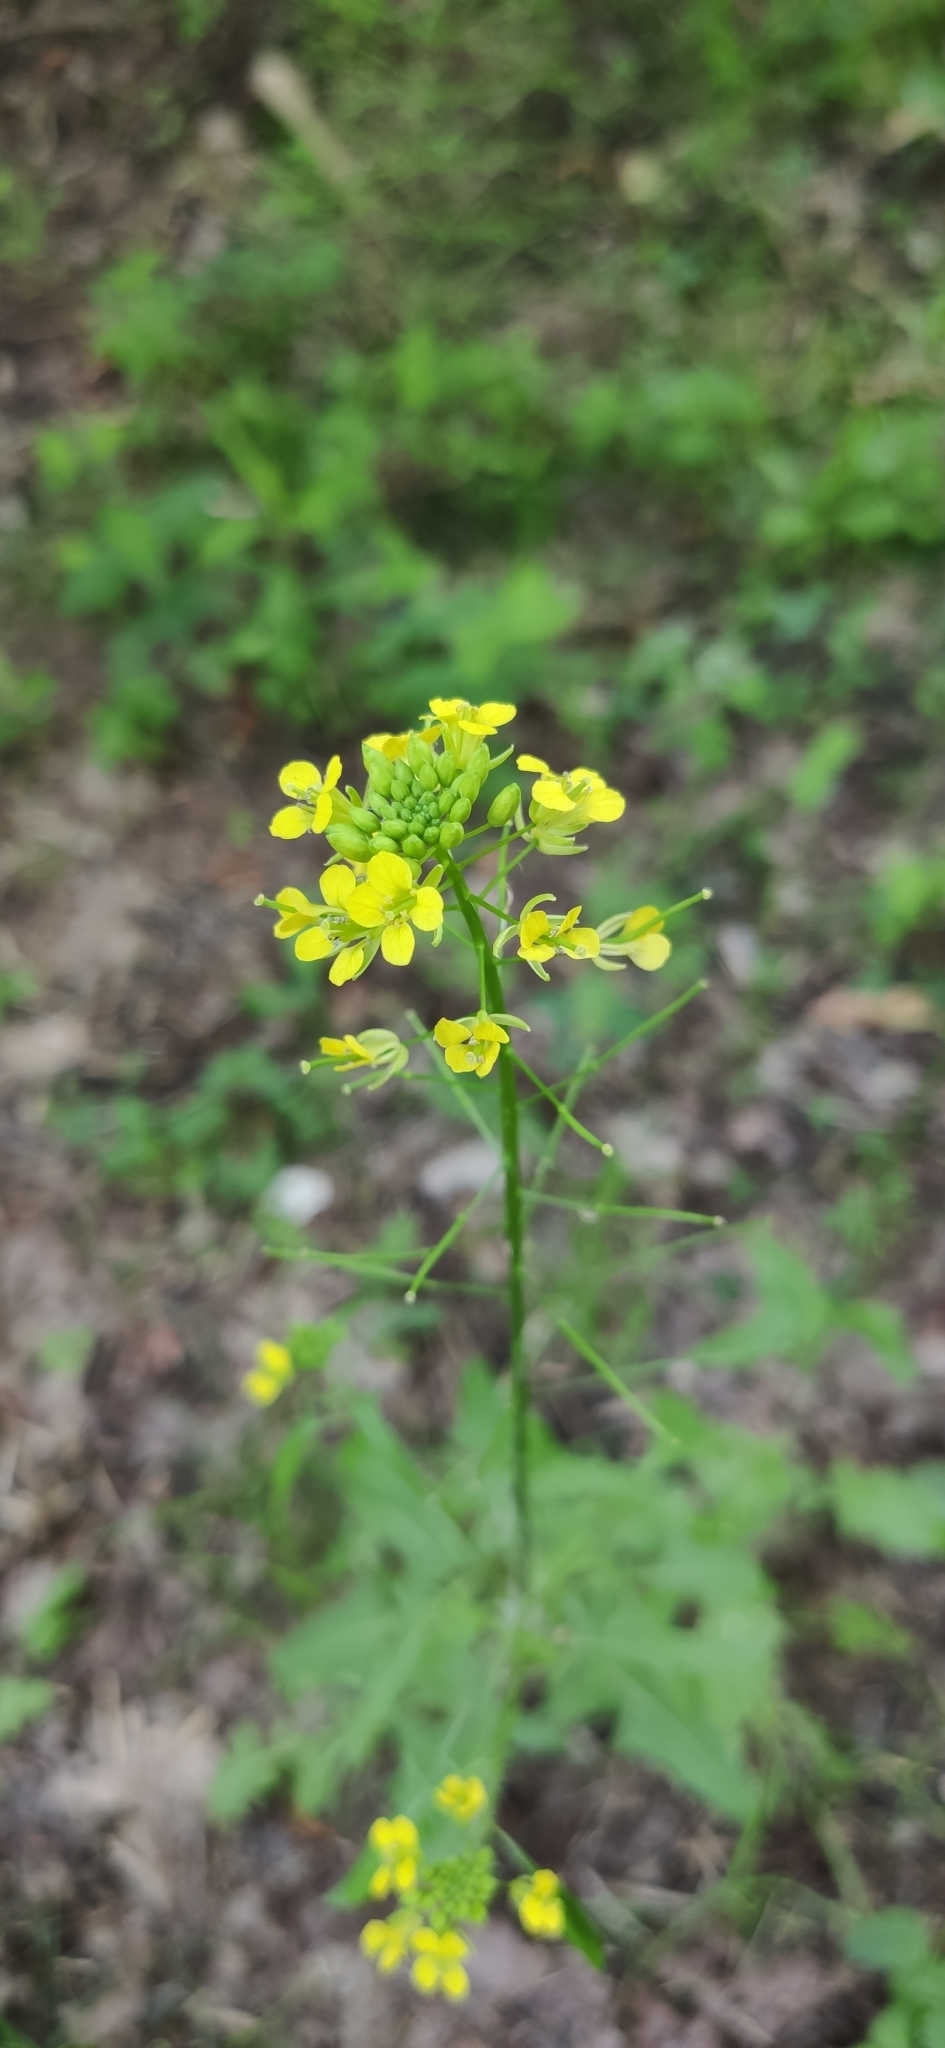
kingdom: Plantae
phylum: Tracheophyta
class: Magnoliopsida
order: Brassicales
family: Brassicaceae
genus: Sisymbrium
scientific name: Sisymbrium loeselii
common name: False london-rocket
